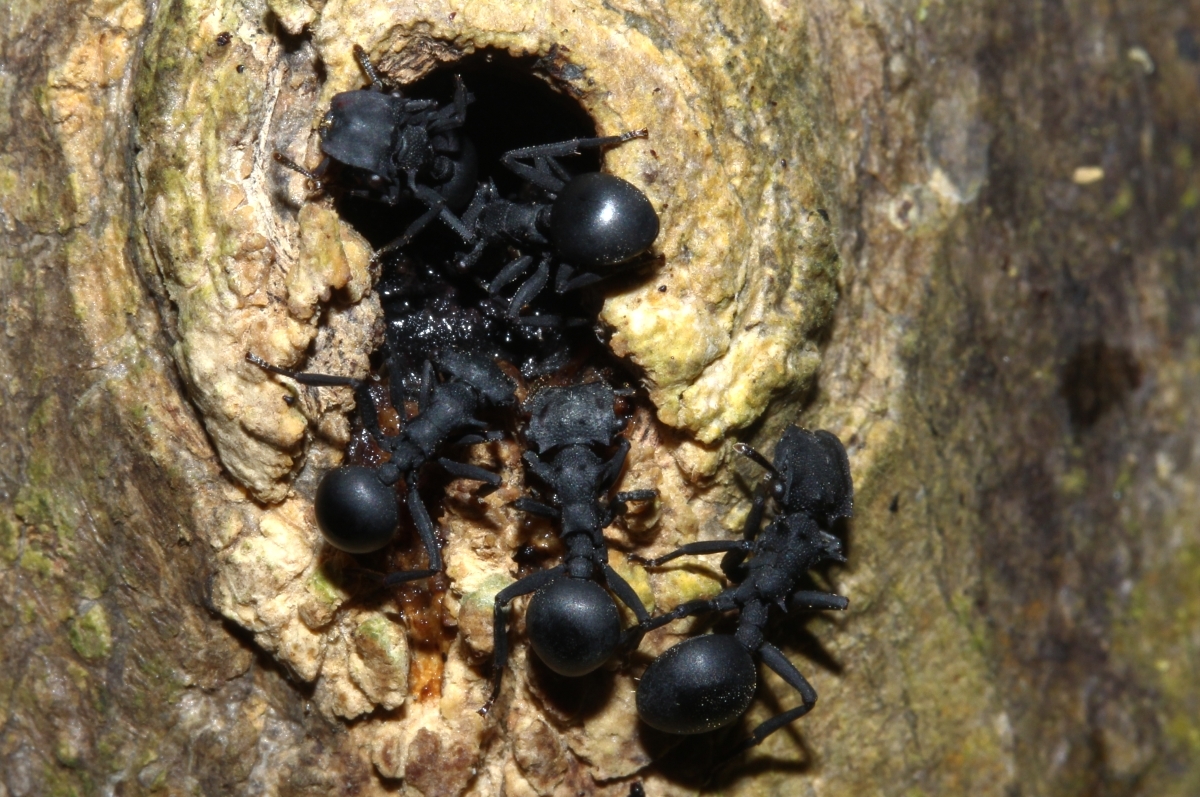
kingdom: Animalia
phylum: Arthropoda
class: Insecta
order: Hymenoptera
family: Formicidae
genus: Cephalotes
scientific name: Cephalotes opacus
